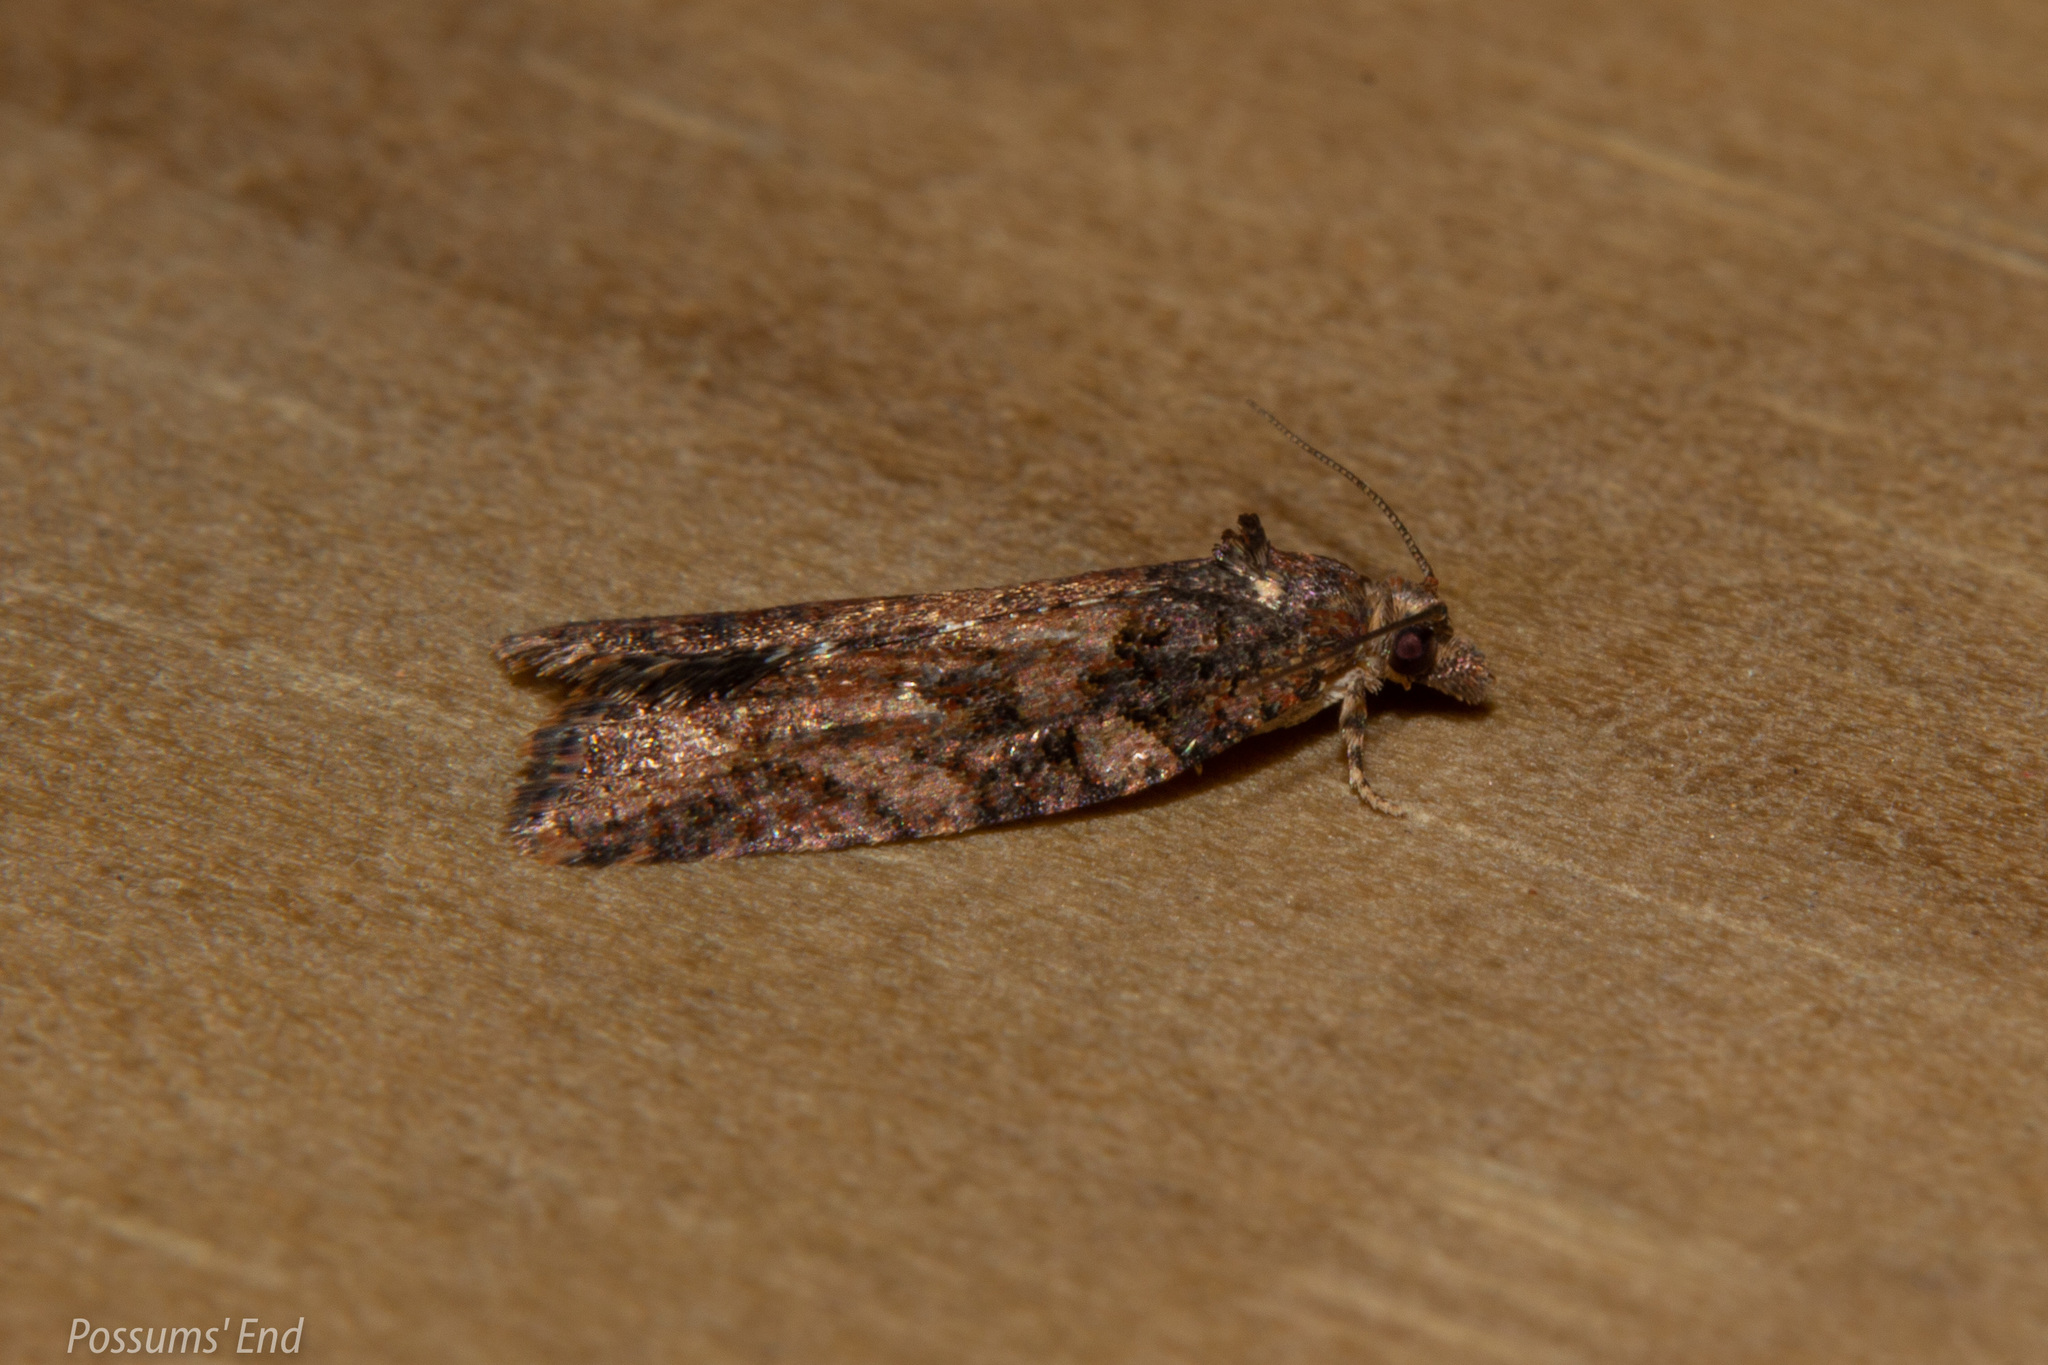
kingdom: Animalia
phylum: Arthropoda
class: Insecta
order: Lepidoptera
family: Tortricidae
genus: Capua
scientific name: Capua intractana
